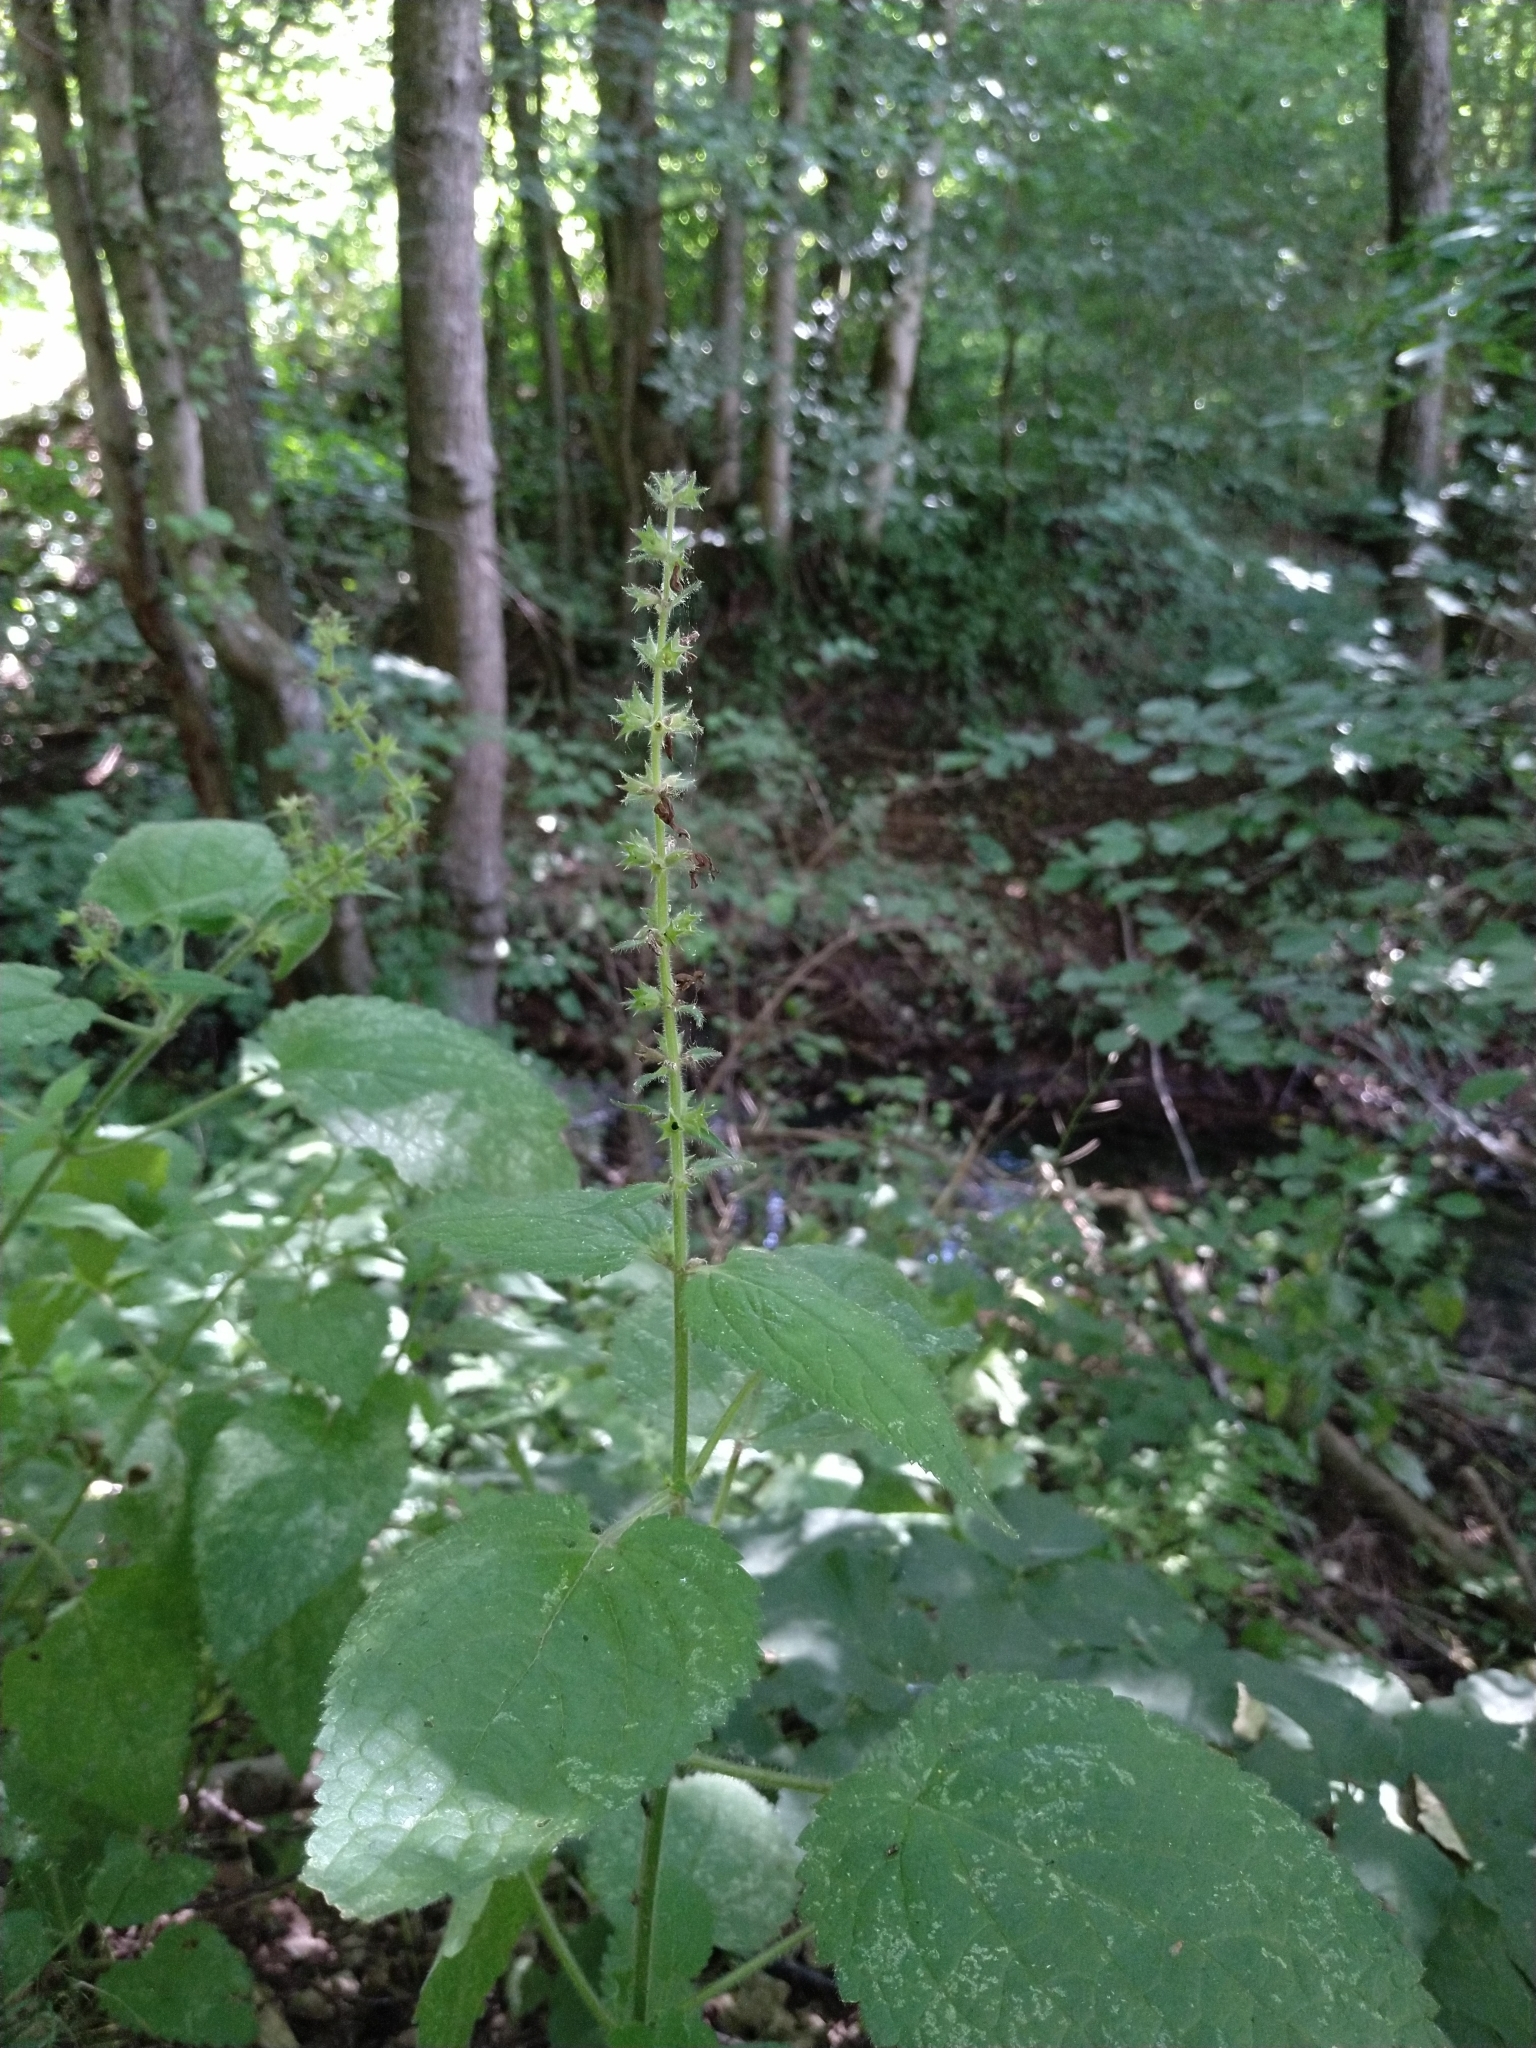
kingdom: Plantae
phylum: Tracheophyta
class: Magnoliopsida
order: Lamiales
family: Lamiaceae
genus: Stachys
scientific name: Stachys sylvatica
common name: Hedge woundwort
